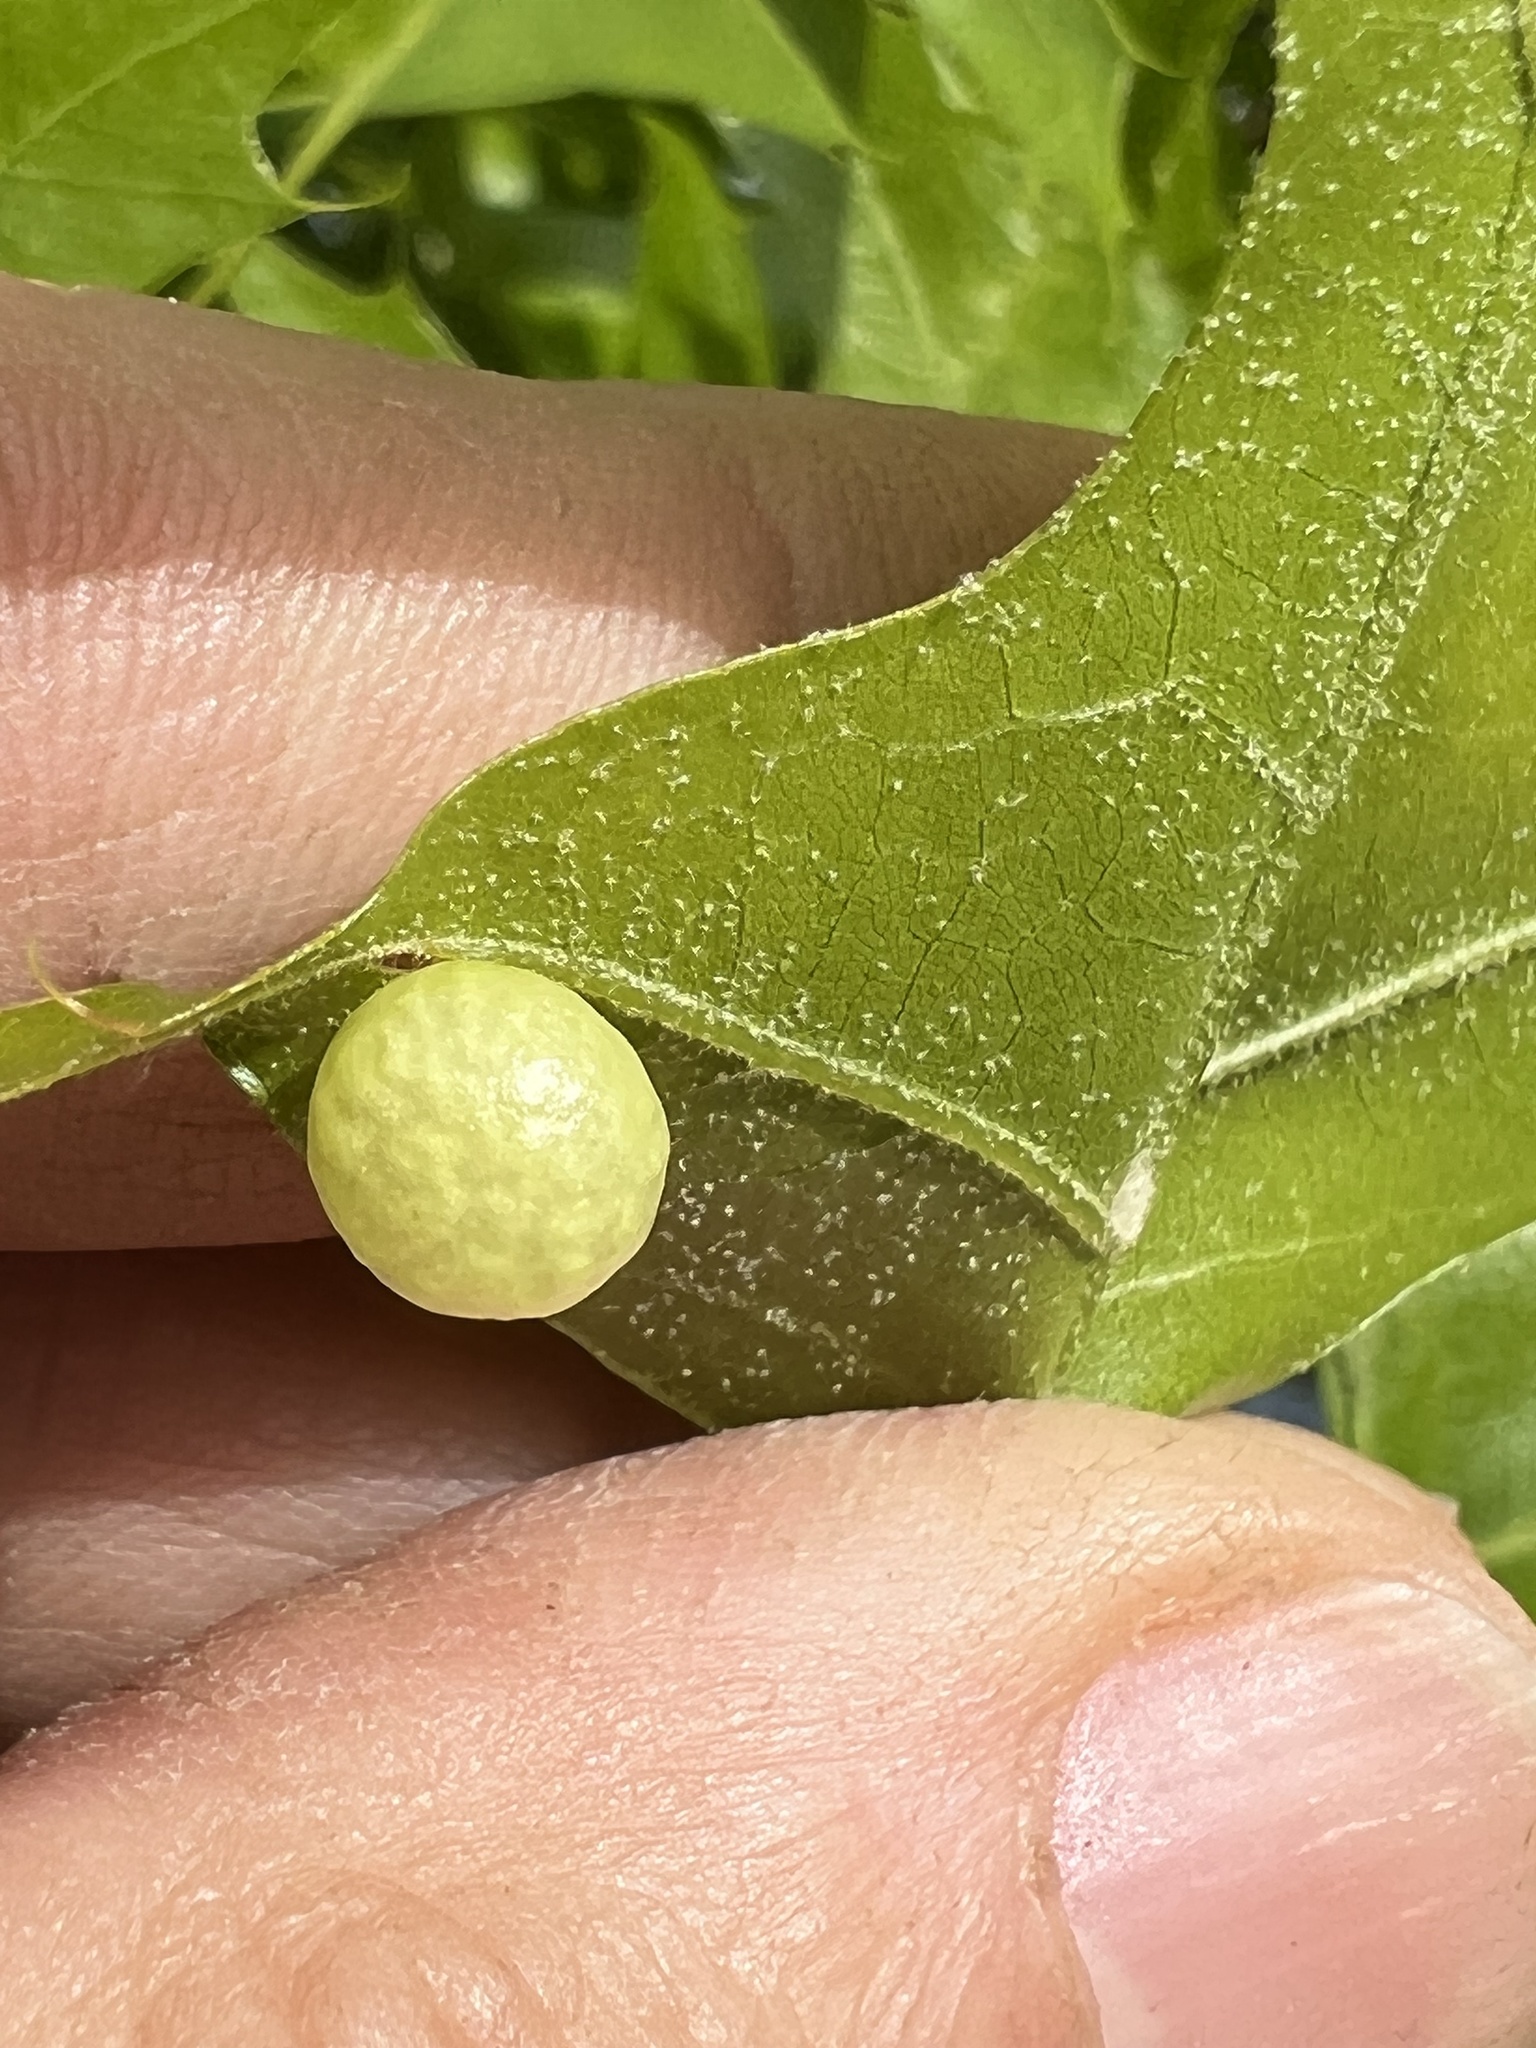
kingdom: Animalia
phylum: Arthropoda
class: Insecta
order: Hymenoptera
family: Cynipidae
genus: Amphibolips
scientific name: Amphibolips
